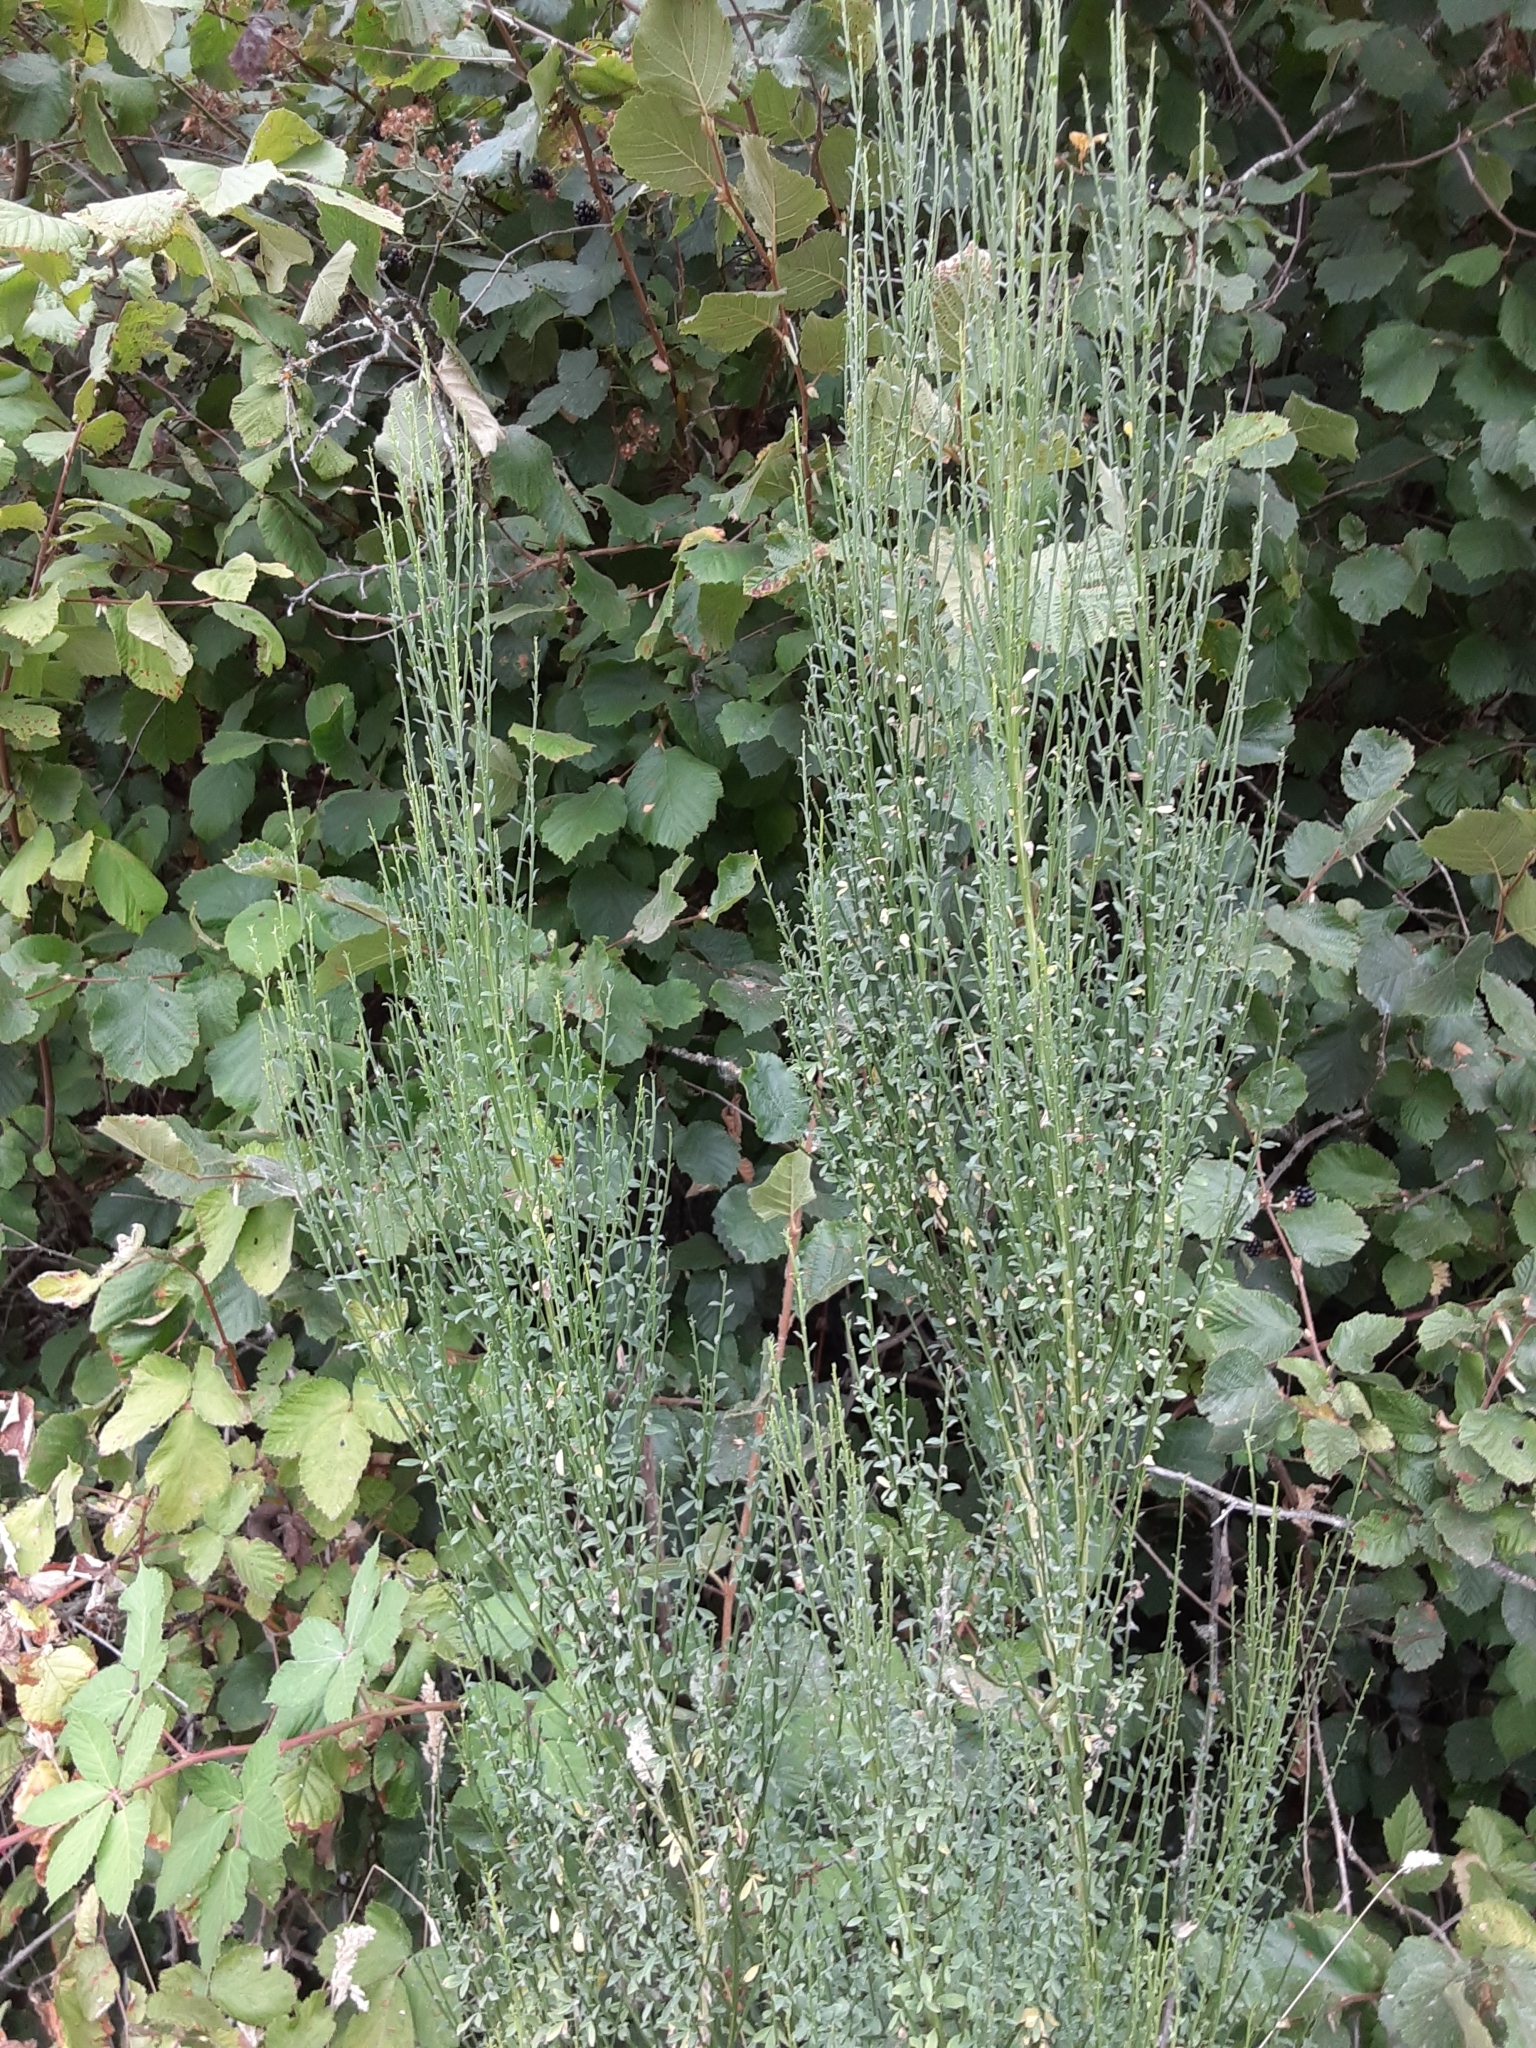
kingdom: Plantae
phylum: Tracheophyta
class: Magnoliopsida
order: Fabales
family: Fabaceae
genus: Cytisus
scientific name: Cytisus scoparius
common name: Scotch broom
